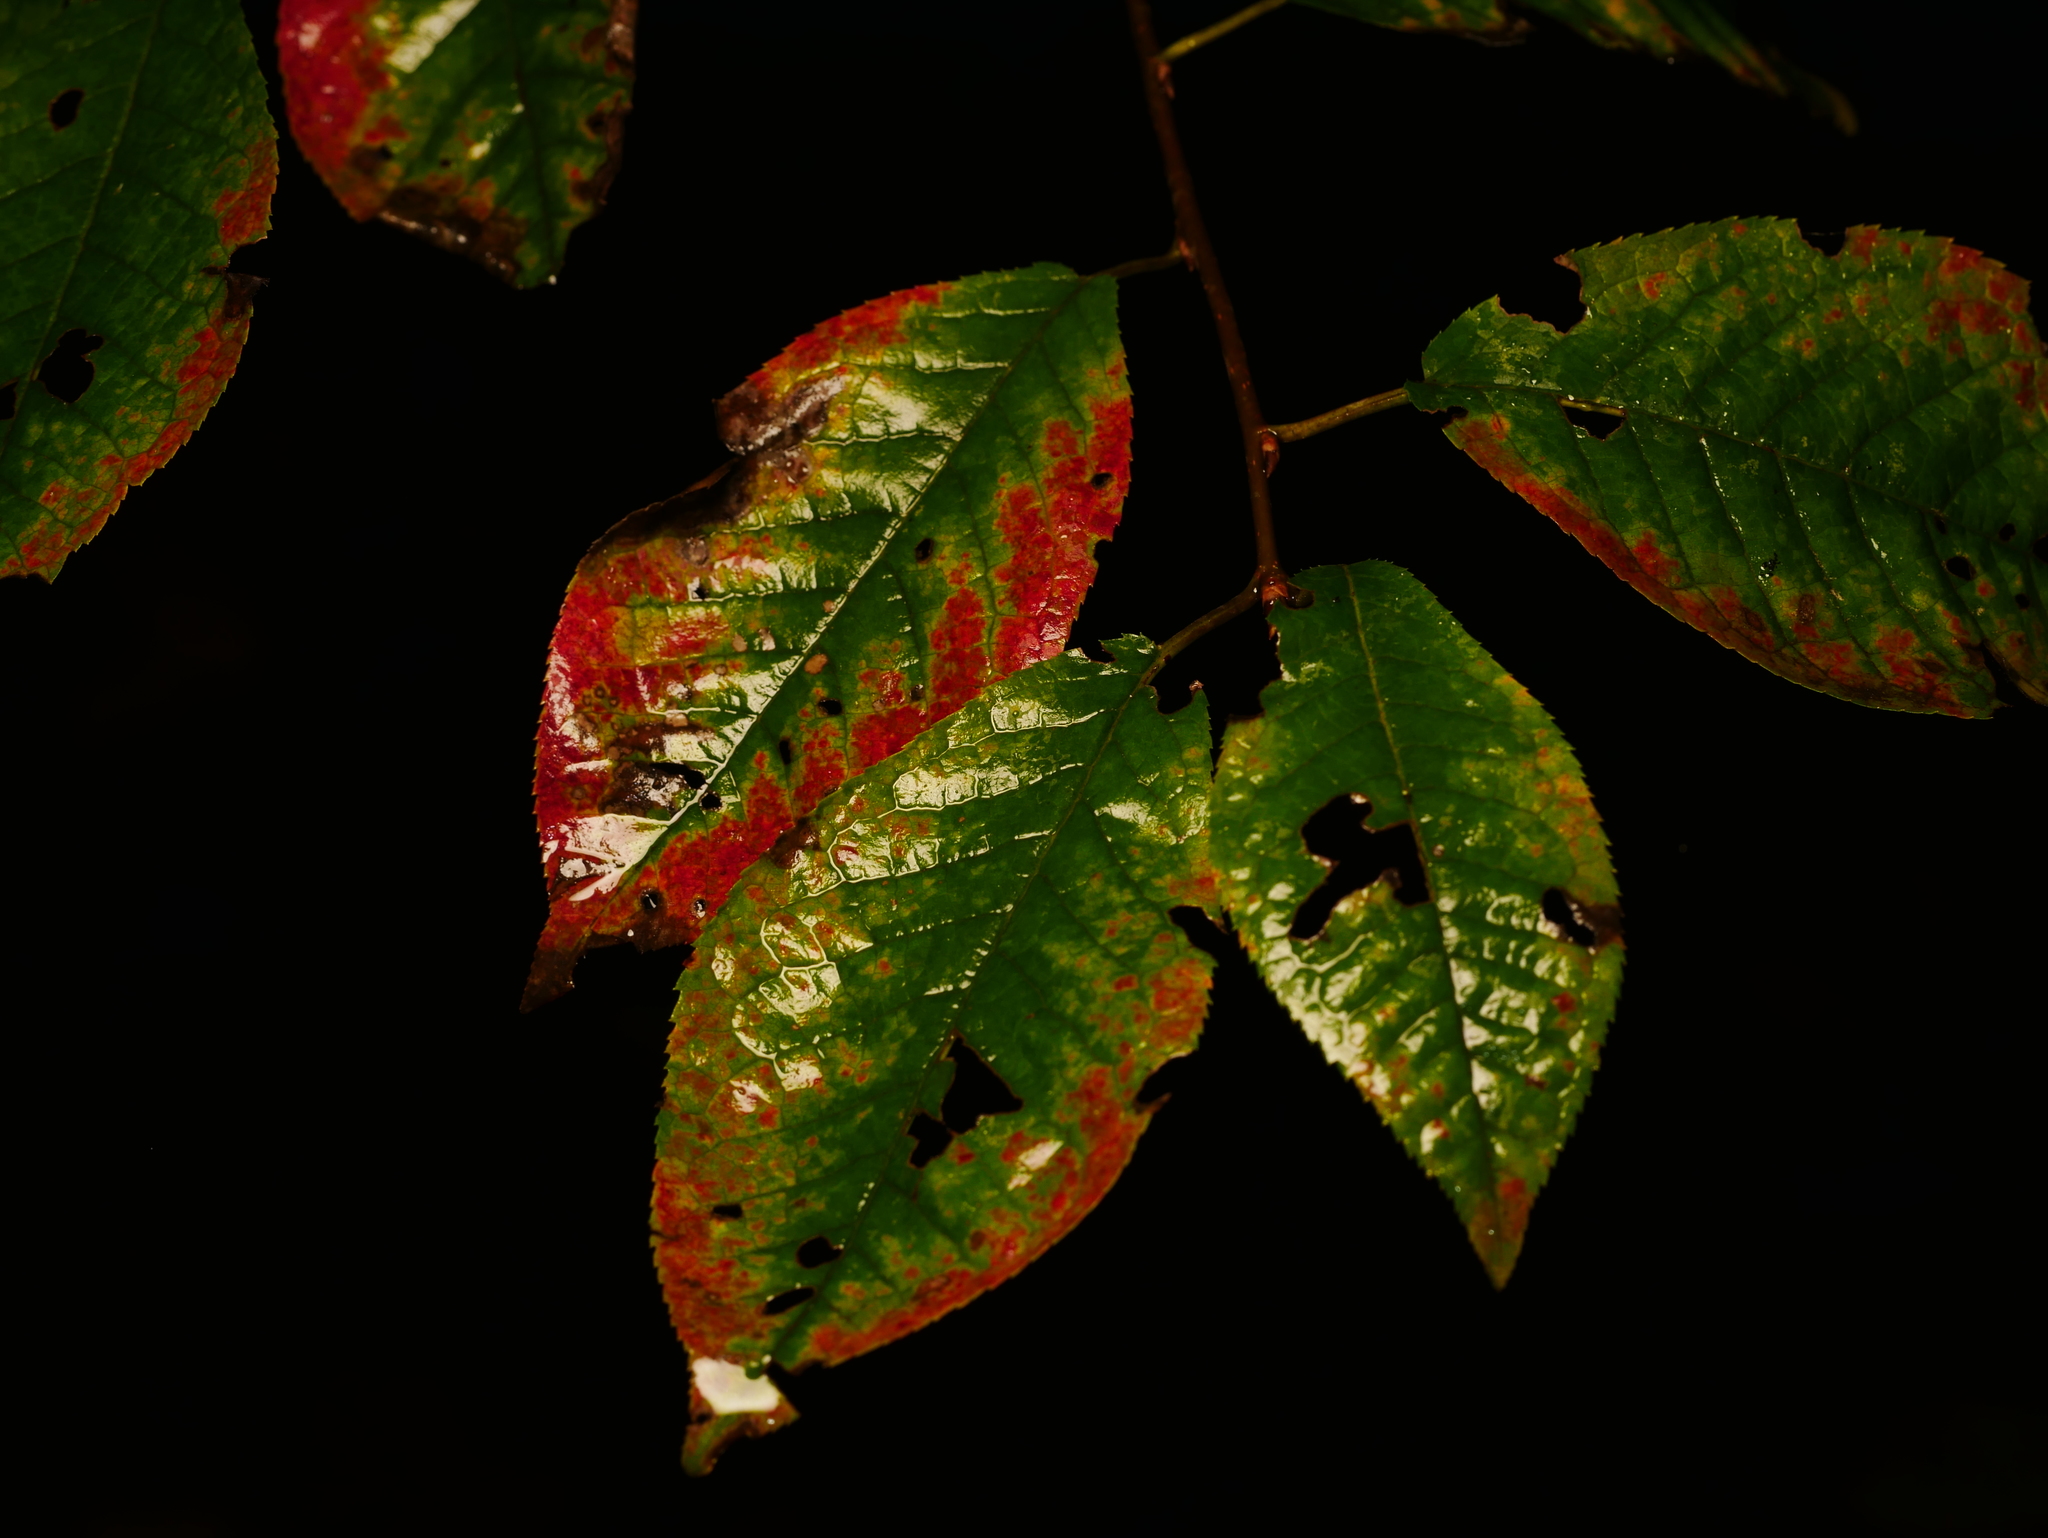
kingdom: Plantae
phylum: Tracheophyta
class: Magnoliopsida
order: Rosales
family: Rosaceae
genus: Prunus
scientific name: Prunus padus
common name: Bird cherry
